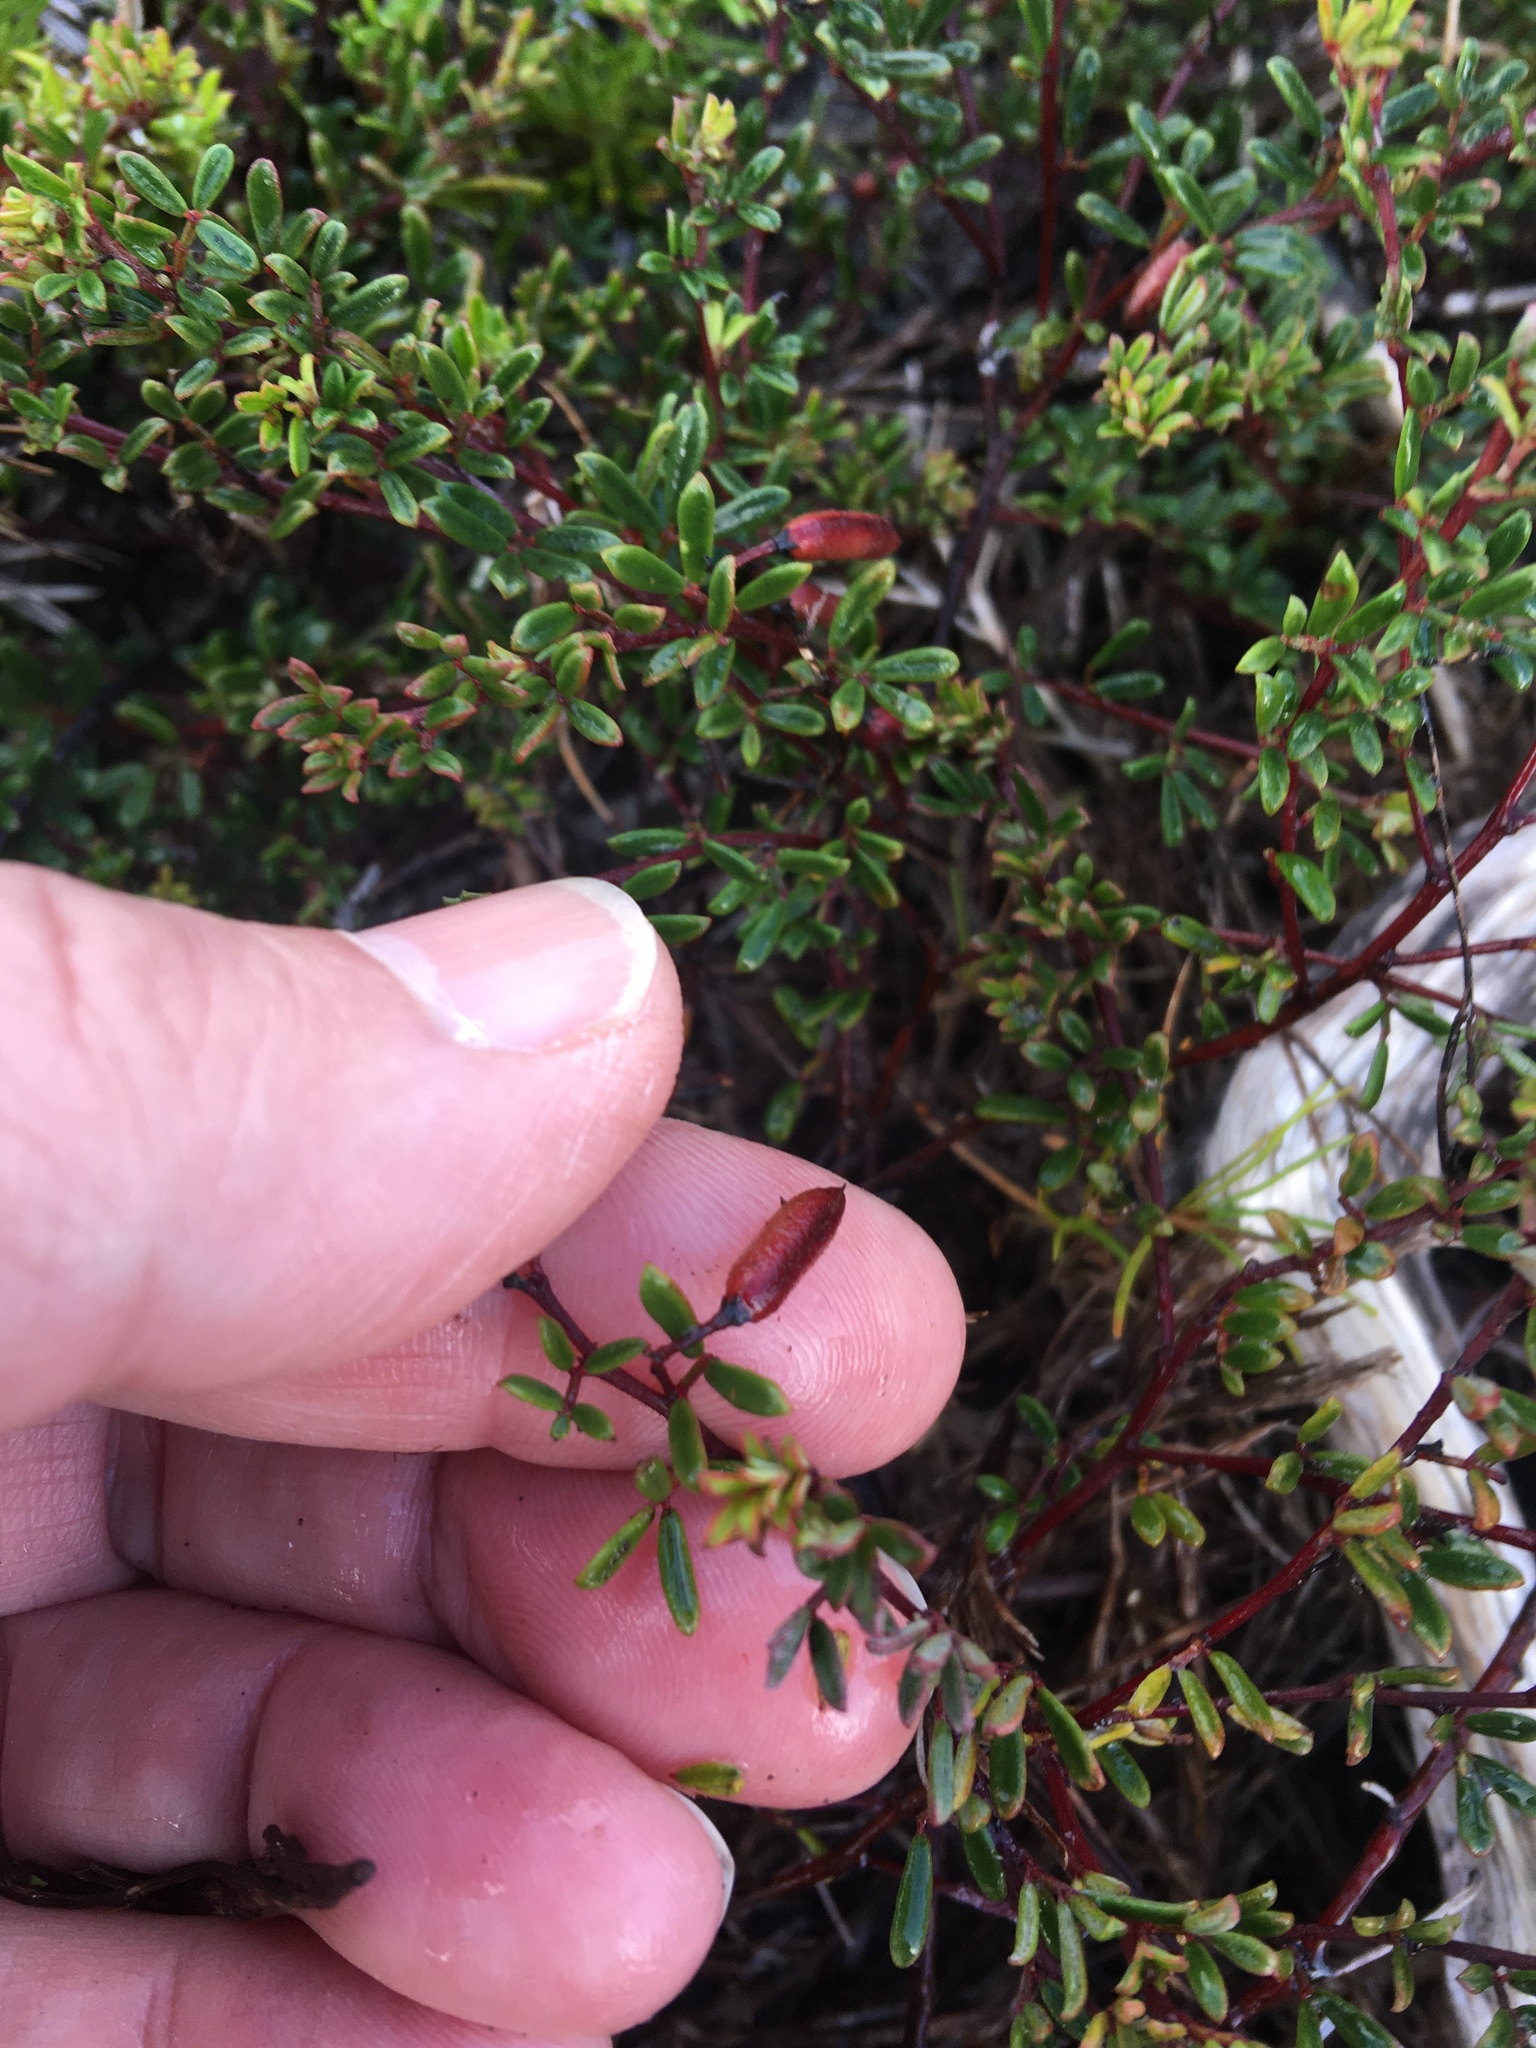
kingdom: Plantae
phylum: Tracheophyta
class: Magnoliopsida
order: Fabales
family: Fabaceae
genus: Indigofera
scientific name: Indigofera
